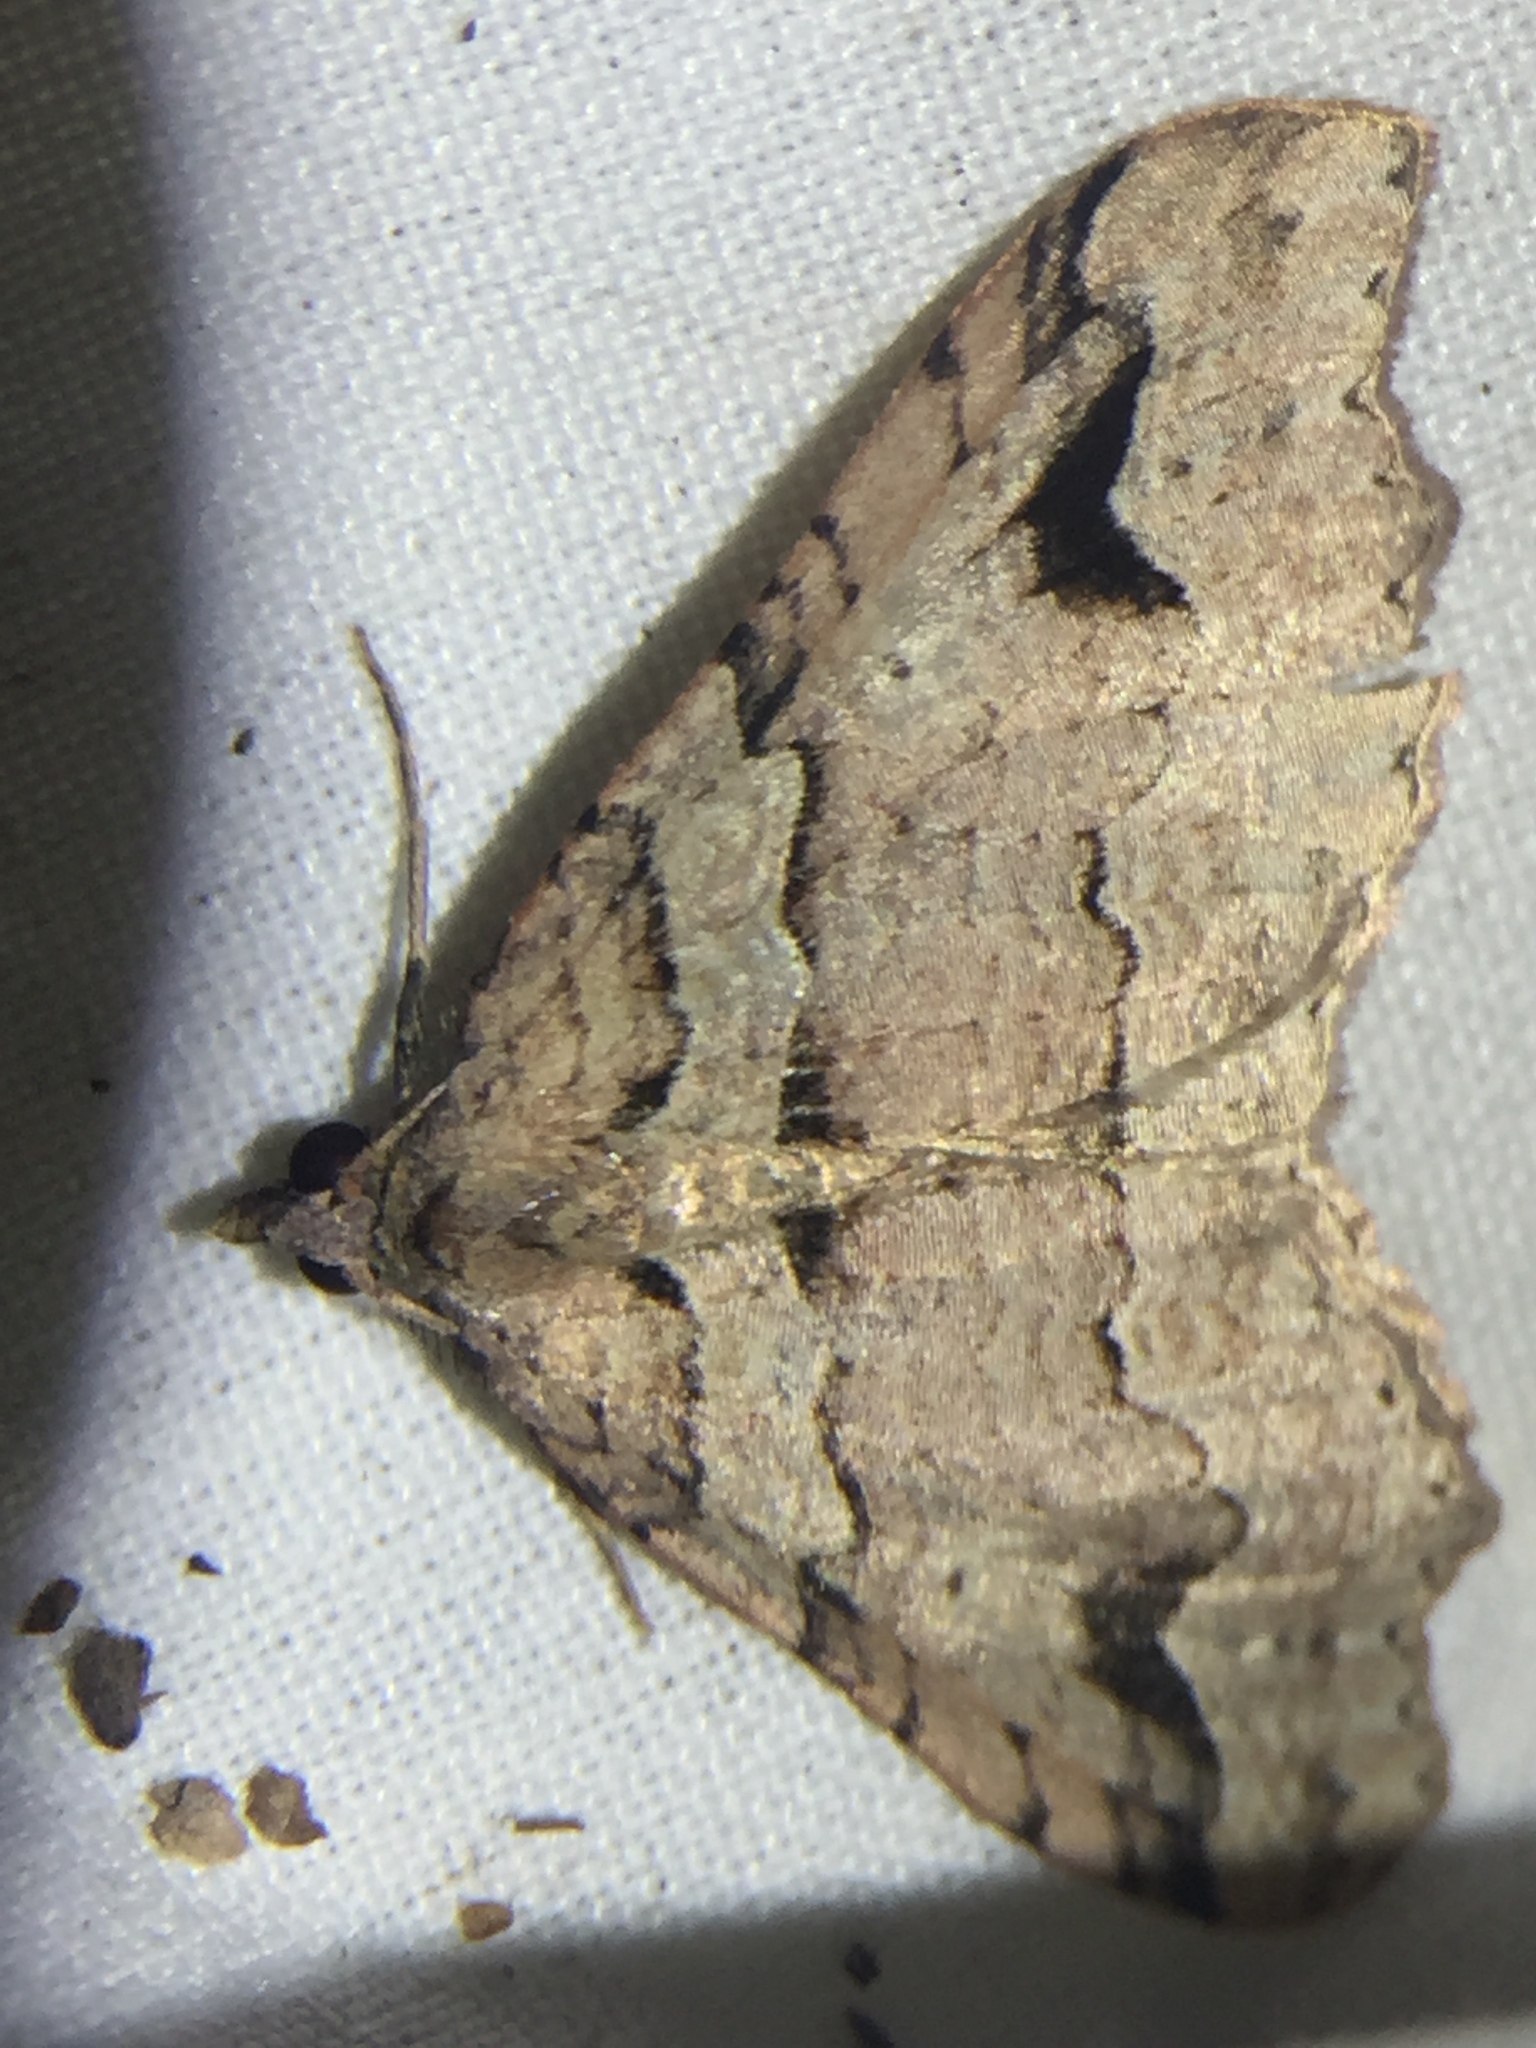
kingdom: Animalia
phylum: Arthropoda
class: Insecta
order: Lepidoptera
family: Geometridae
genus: Austrocidaria
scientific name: Austrocidaria parora
